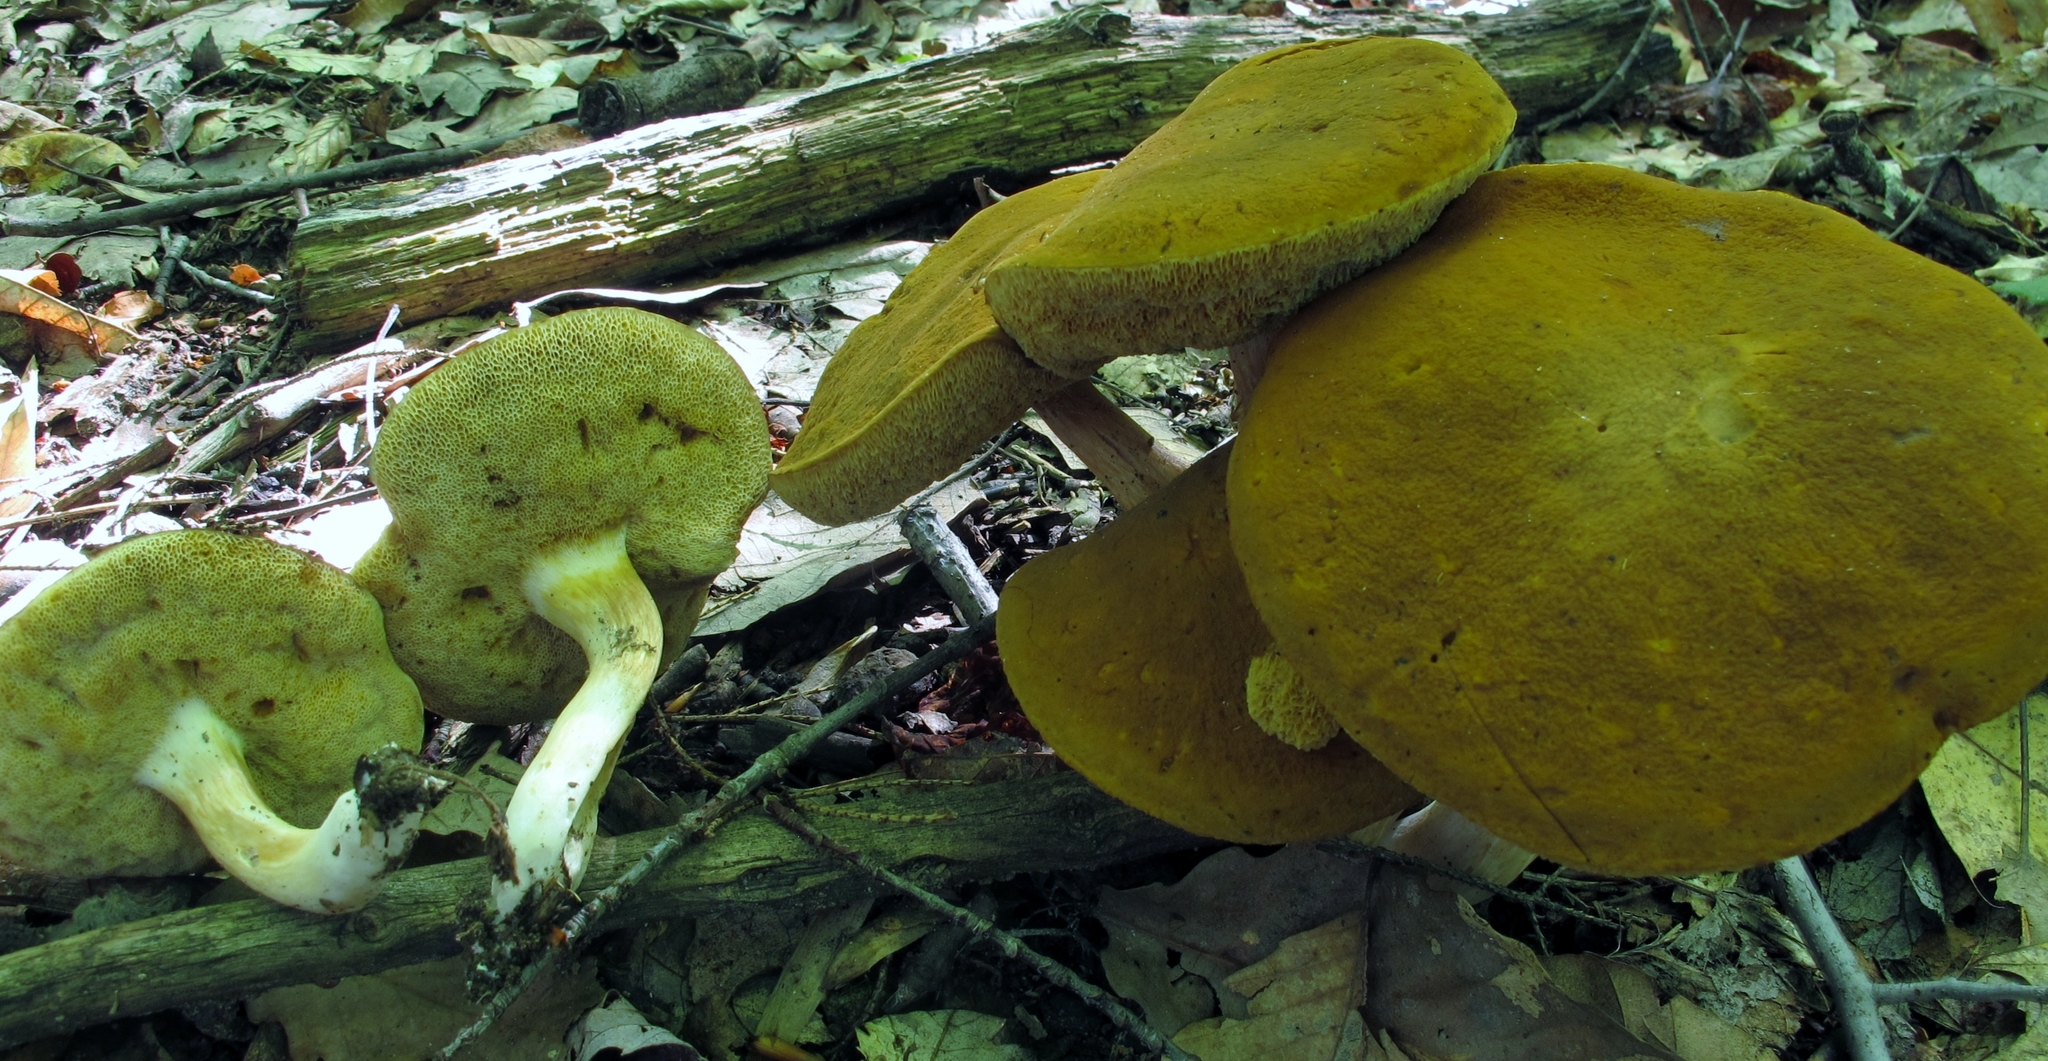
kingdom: Fungi
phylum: Basidiomycota
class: Agaricomycetes
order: Boletales
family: Boletaceae
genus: Xanthoconium
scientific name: Xanthoconium affine
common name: Spotted bolete
